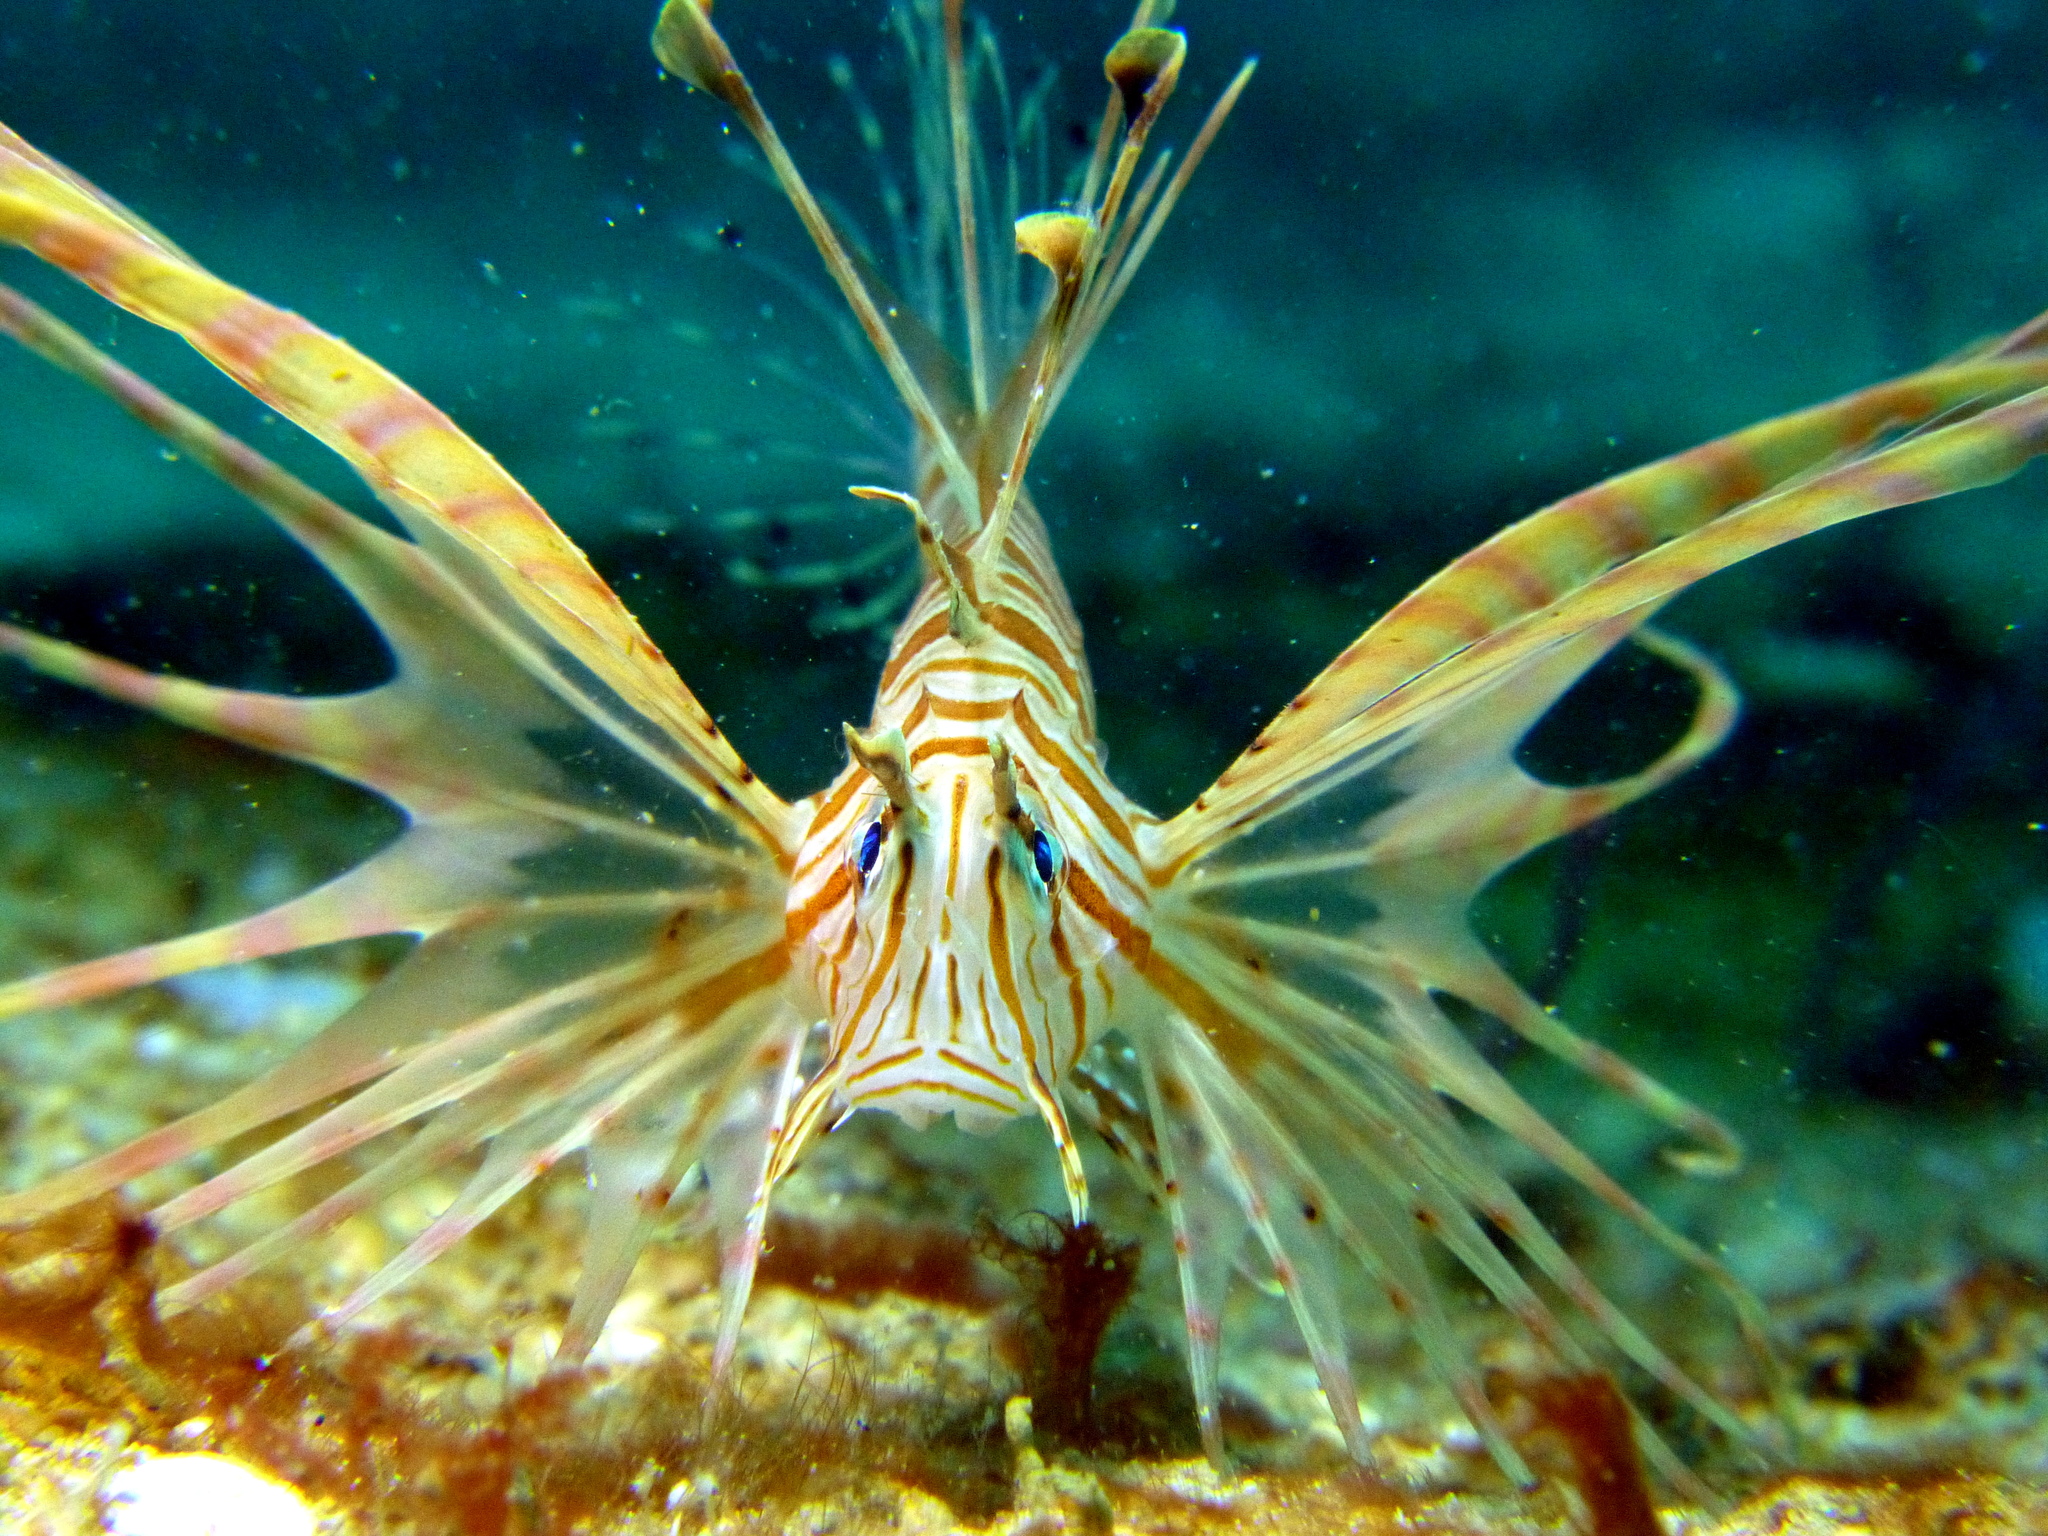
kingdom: Animalia
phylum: Chordata
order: Scorpaeniformes
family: Scorpaenidae
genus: Pterois
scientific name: Pterois volitans
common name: Lionfish
